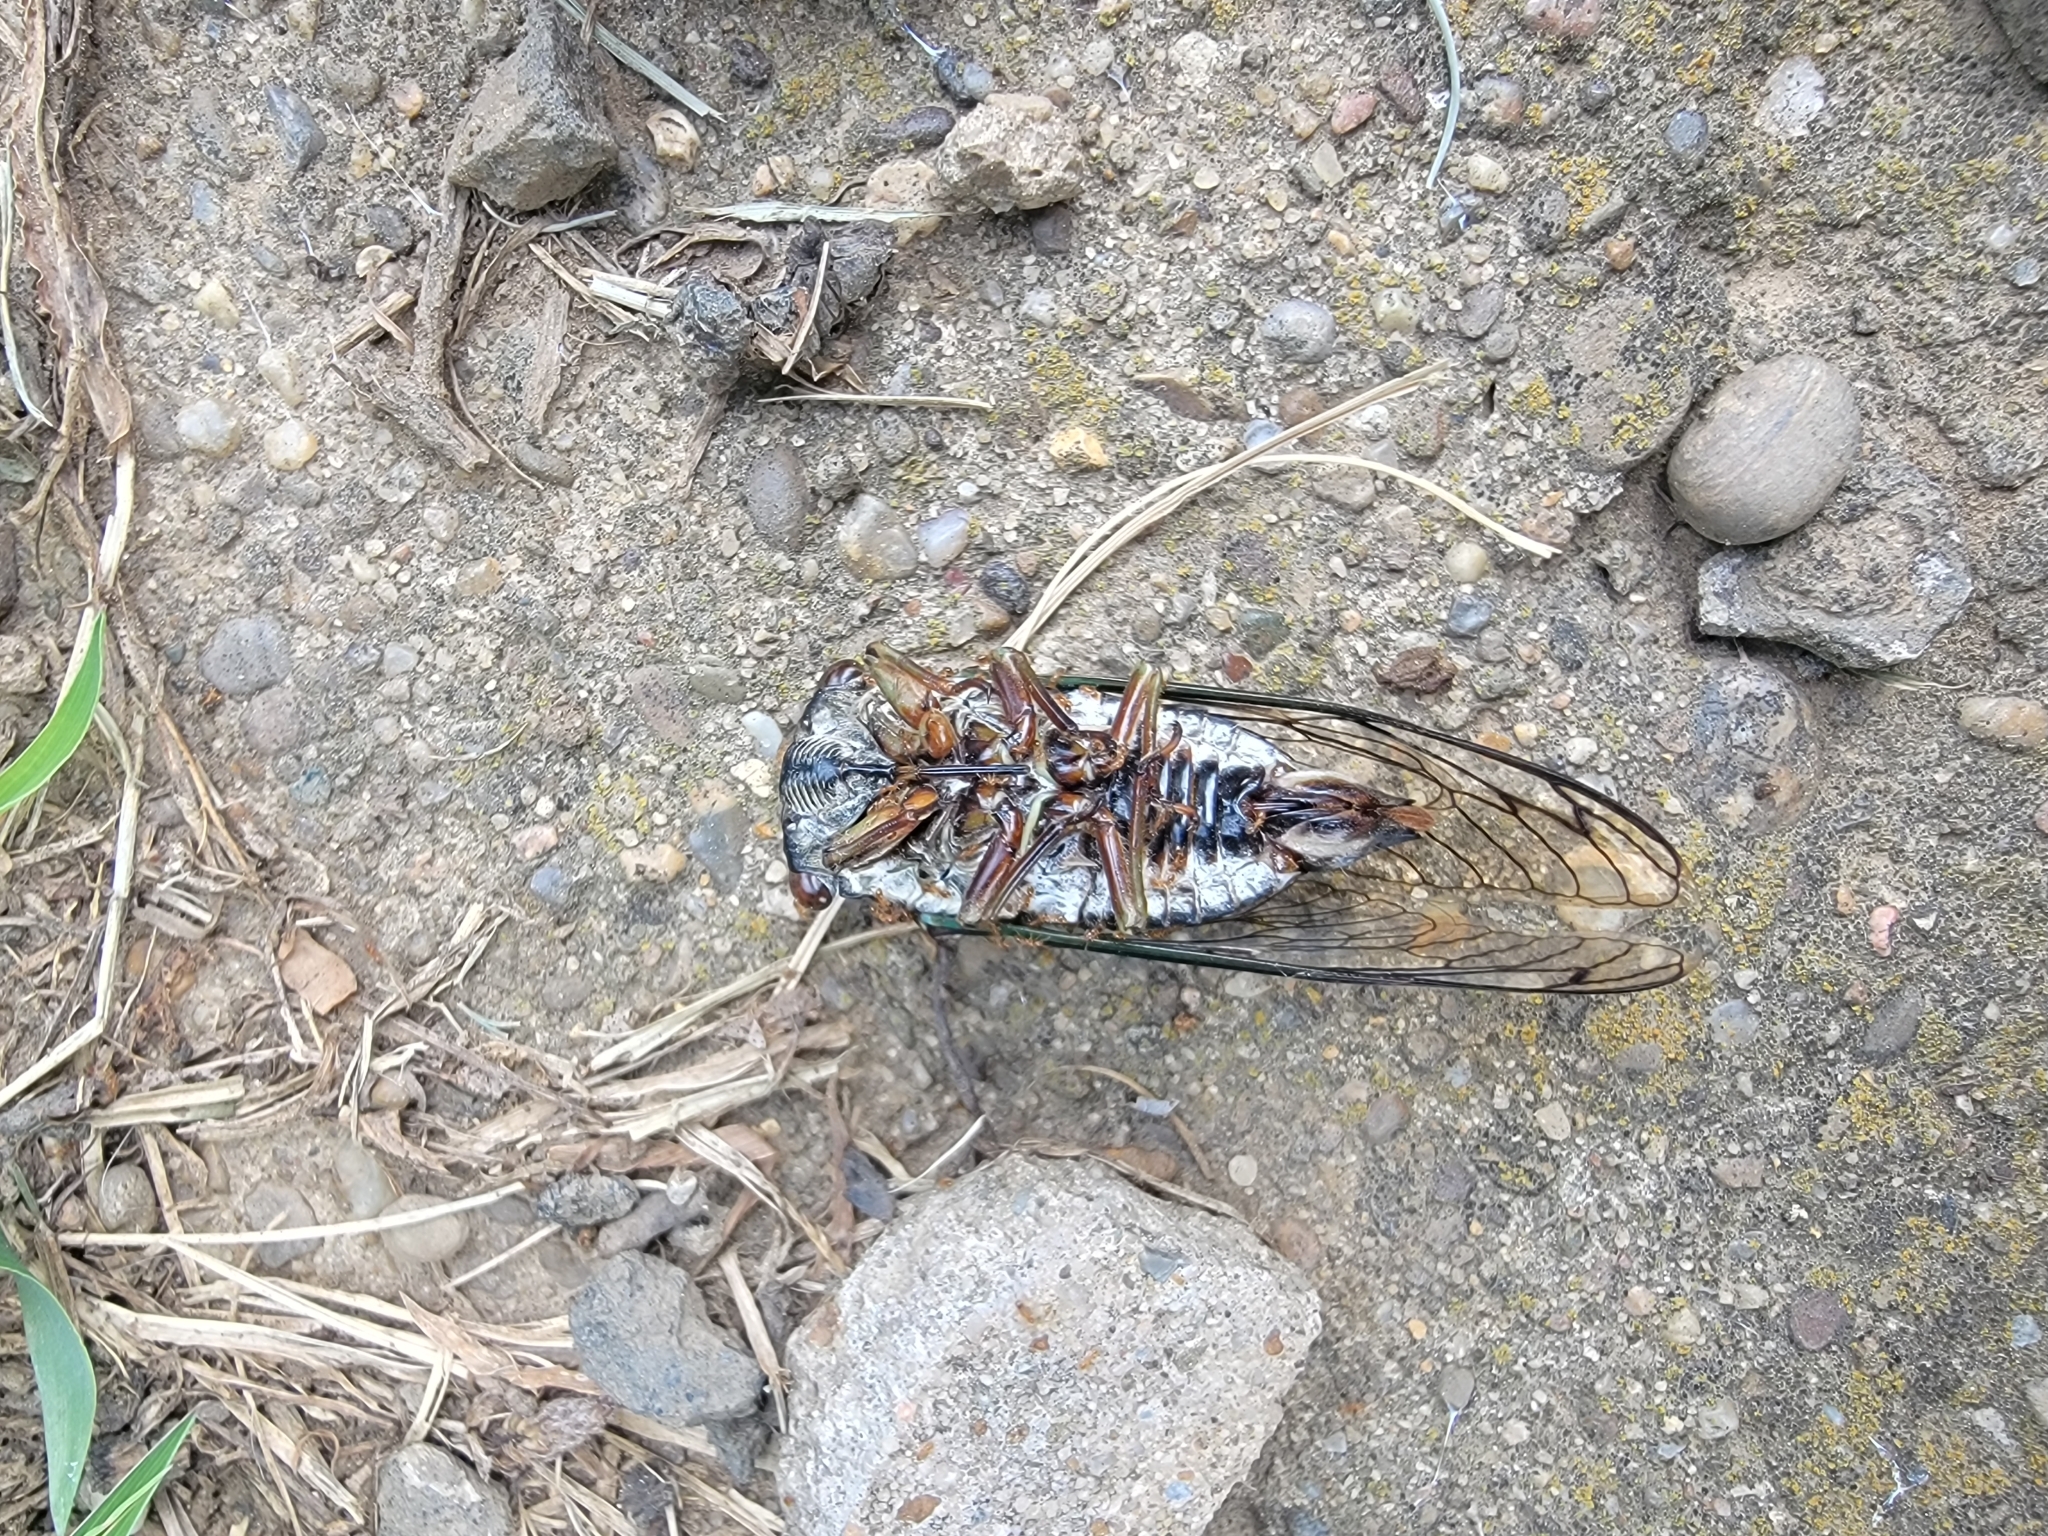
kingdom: Animalia
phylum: Arthropoda
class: Insecta
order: Hemiptera
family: Cicadidae
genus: Neotibicen
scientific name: Neotibicen lyricen
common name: Lyric cicada
